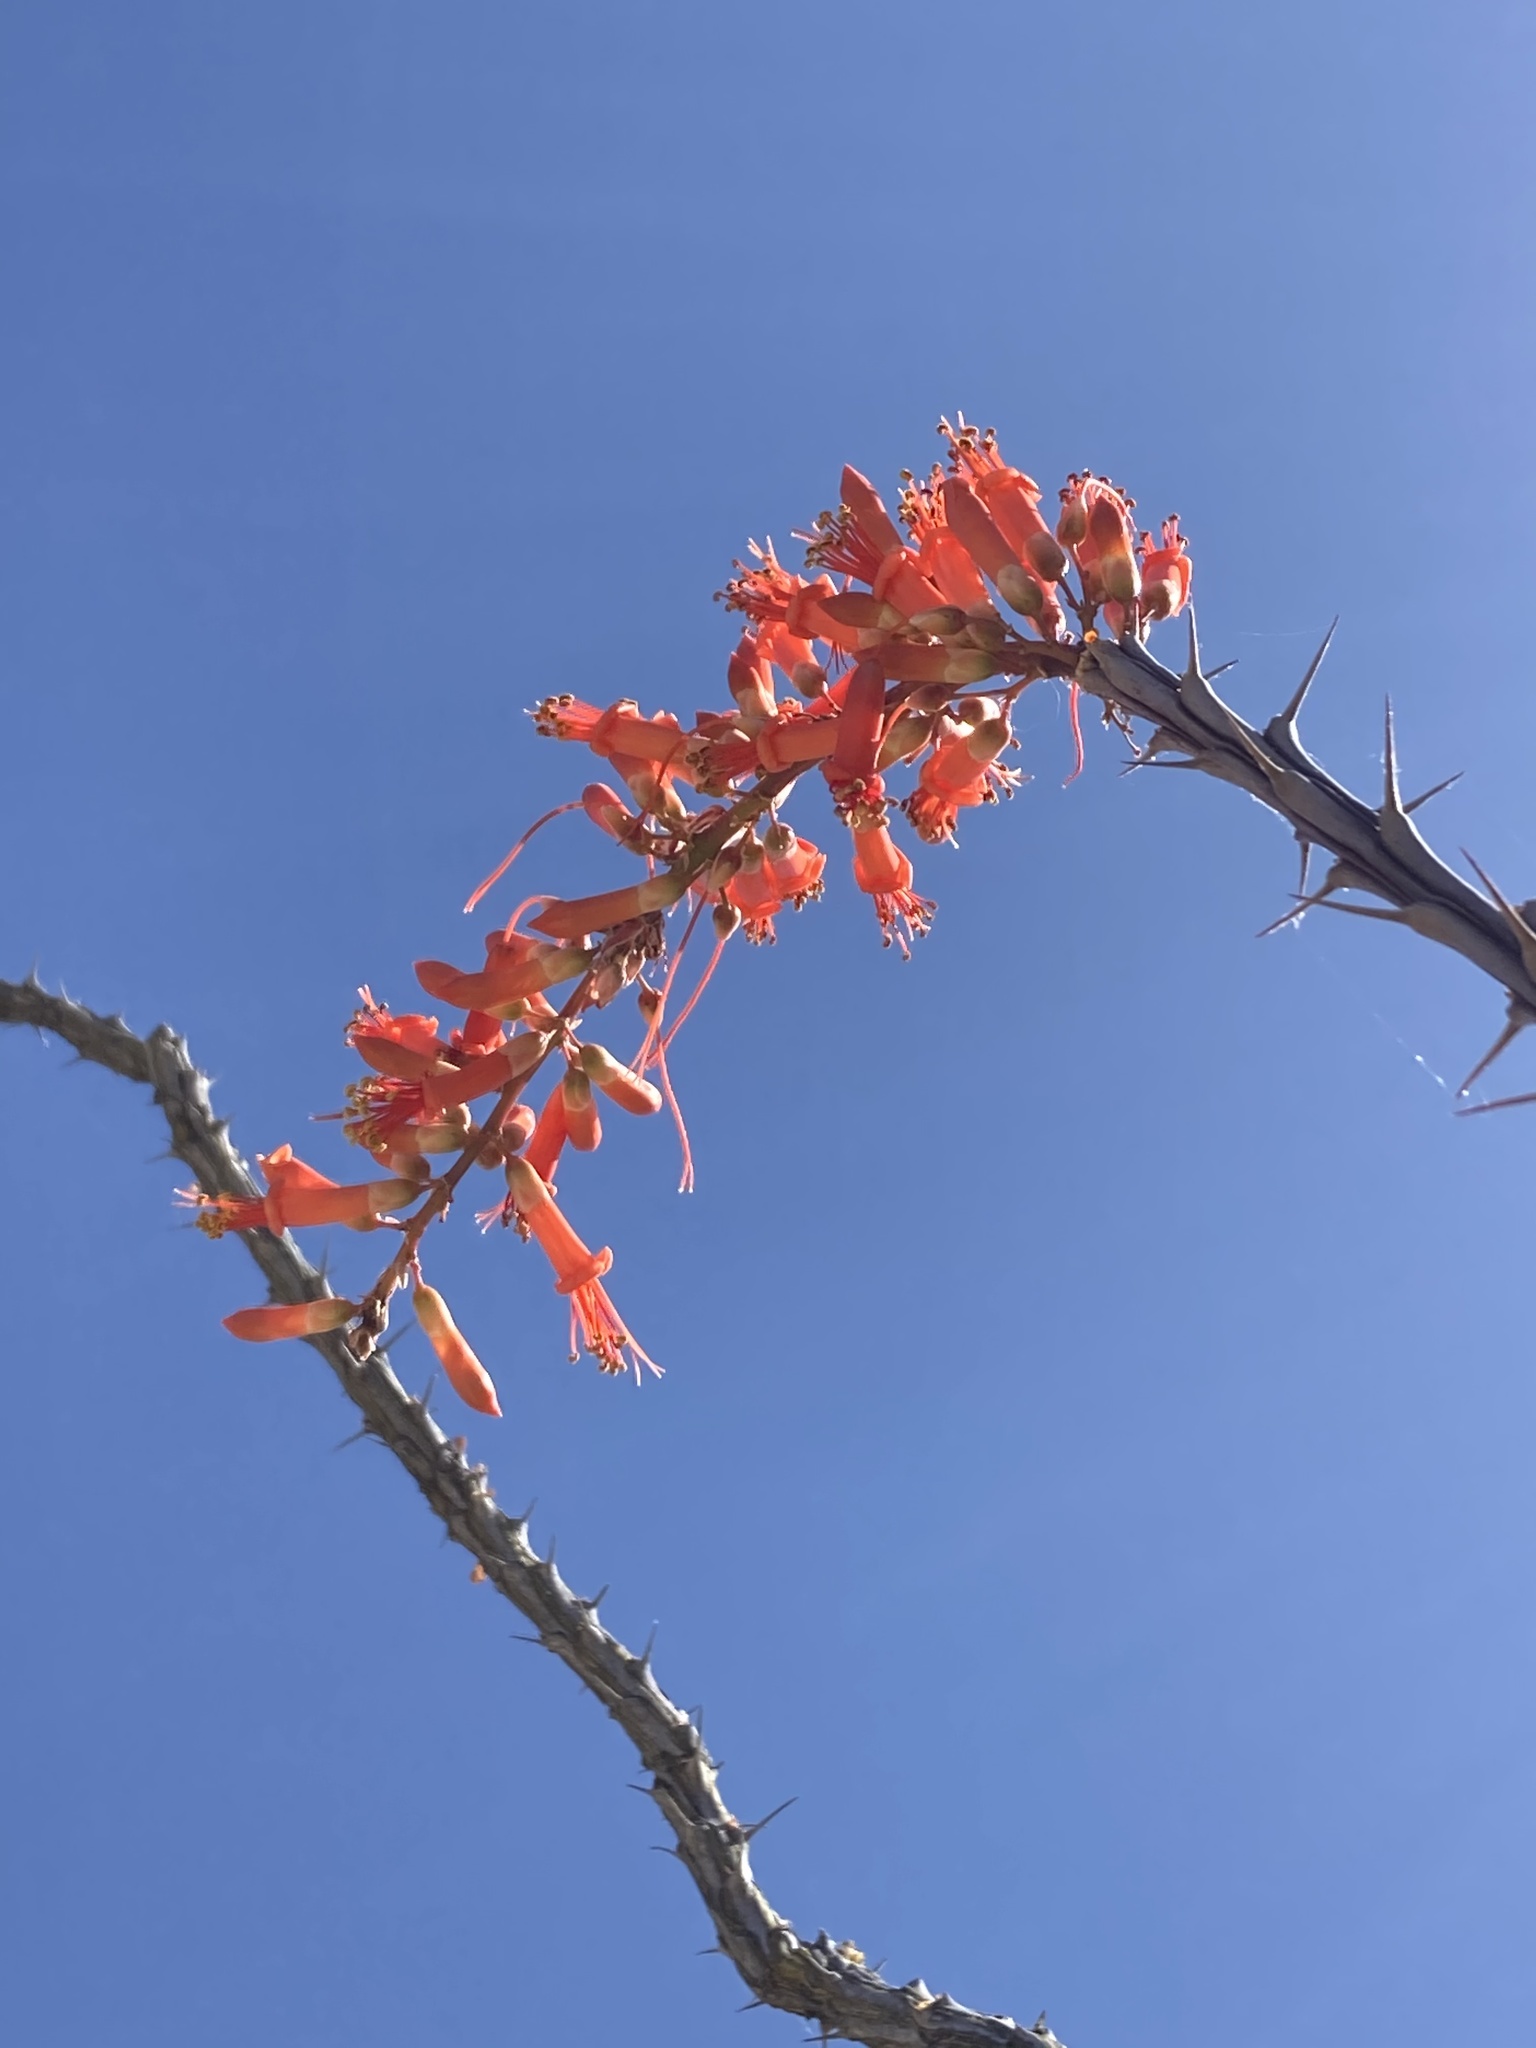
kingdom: Plantae
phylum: Tracheophyta
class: Magnoliopsida
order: Ericales
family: Fouquieriaceae
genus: Fouquieria
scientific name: Fouquieria splendens
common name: Vine-cactus
